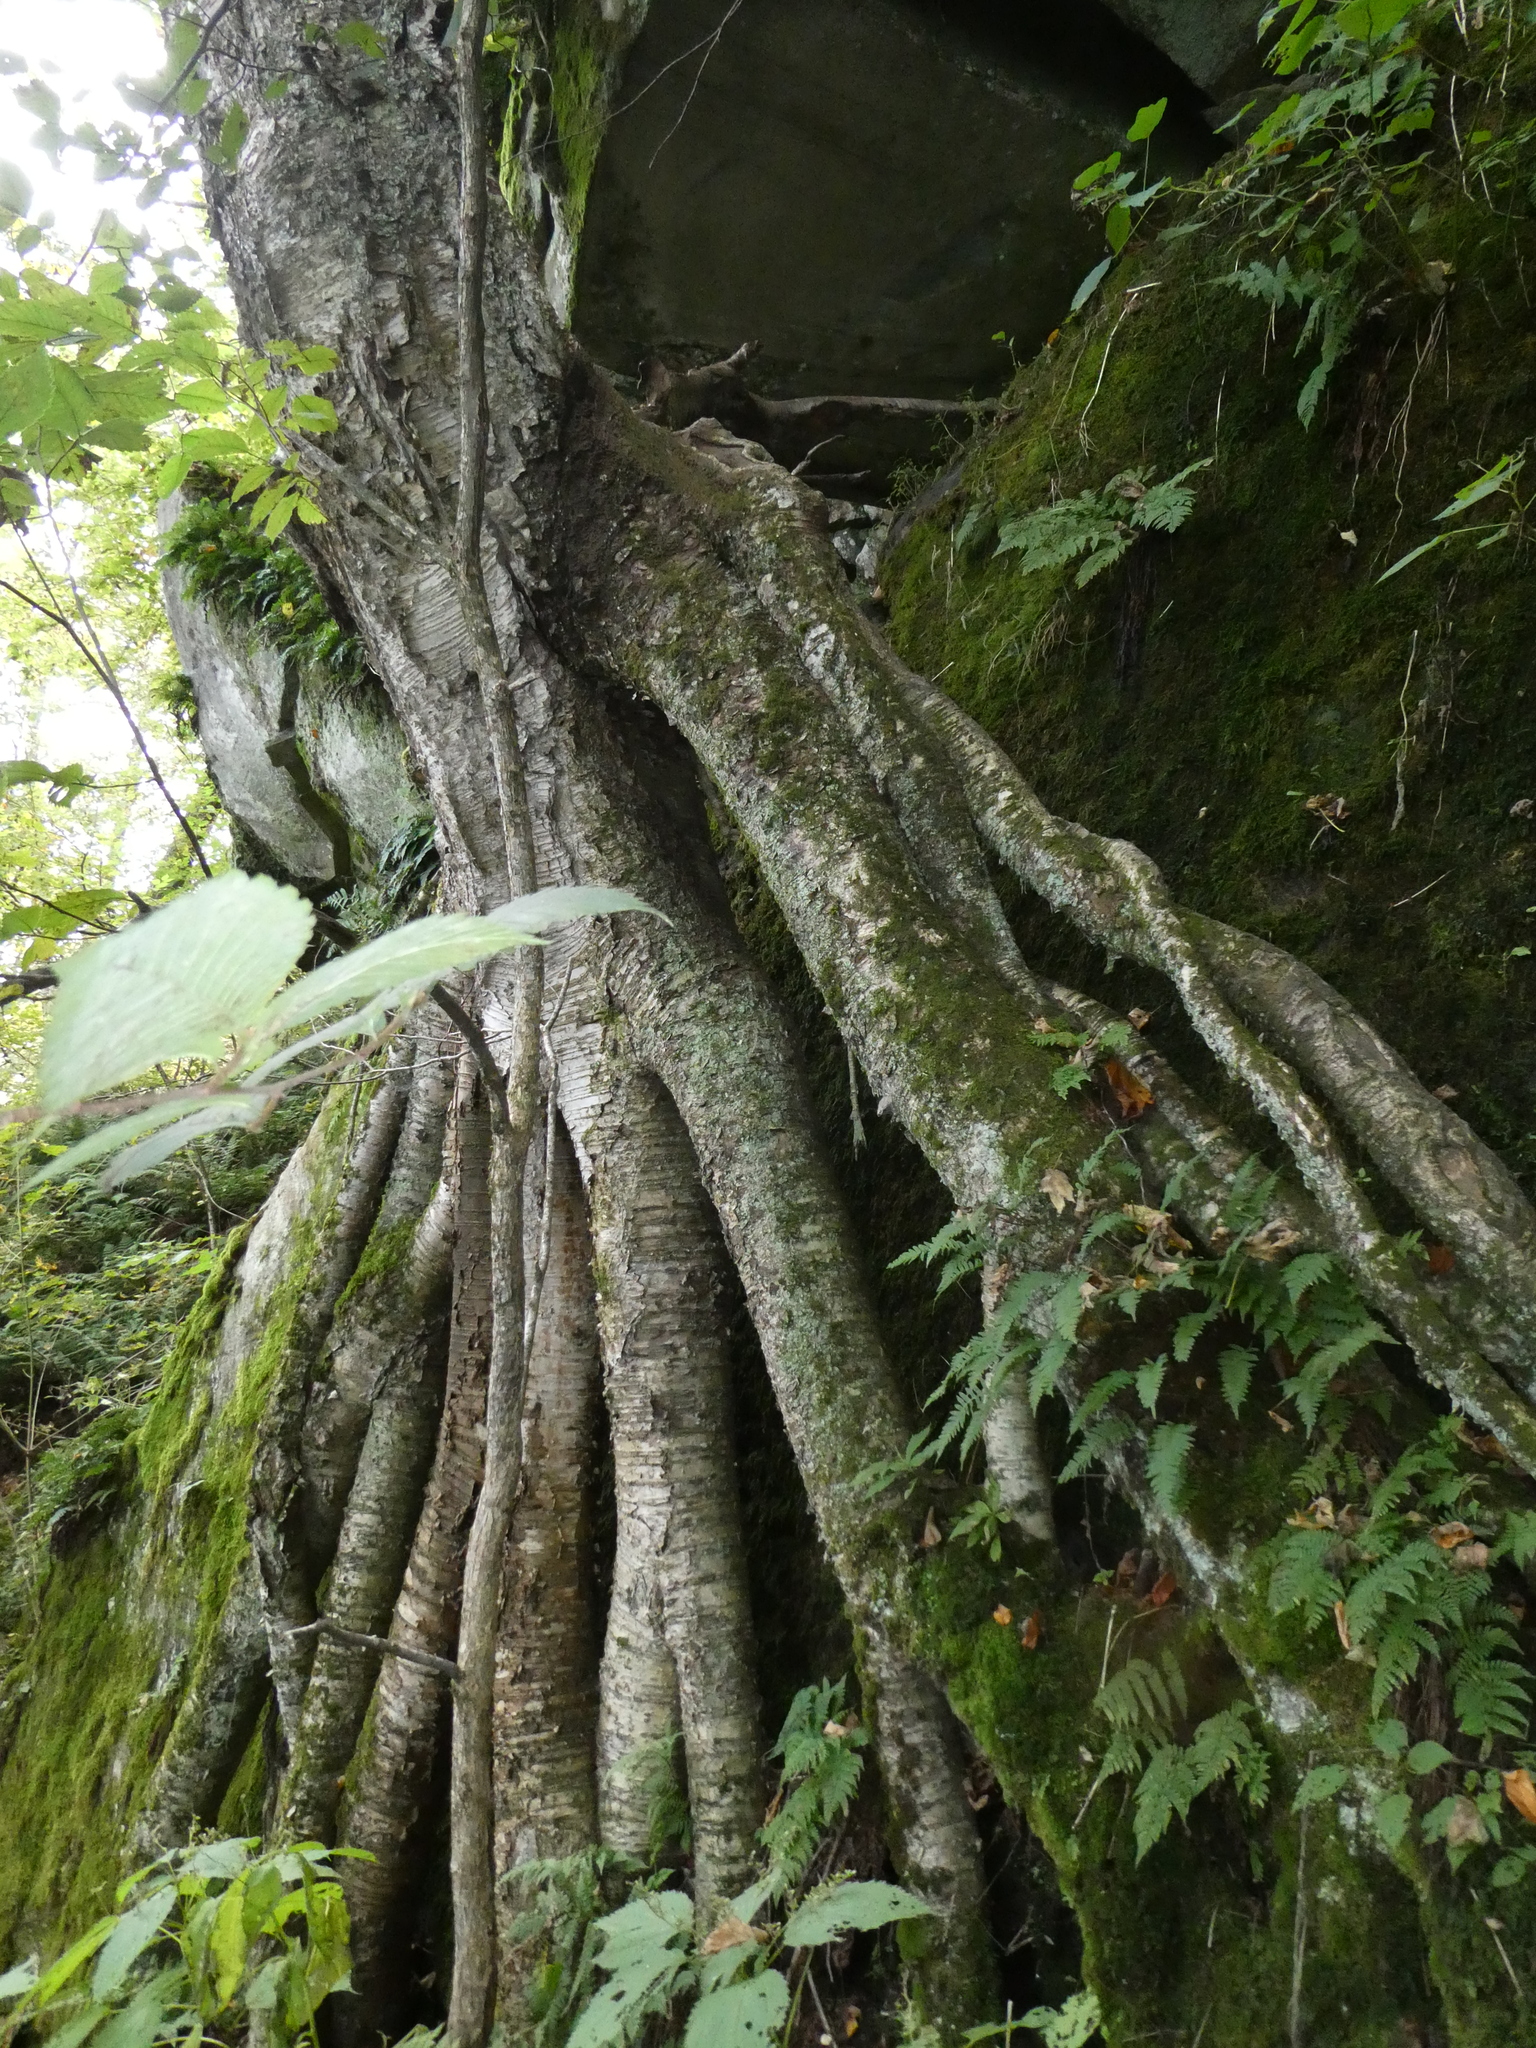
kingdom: Plantae
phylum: Tracheophyta
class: Magnoliopsida
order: Fagales
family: Betulaceae
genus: Betula
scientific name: Betula alleghaniensis
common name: Yellow birch
